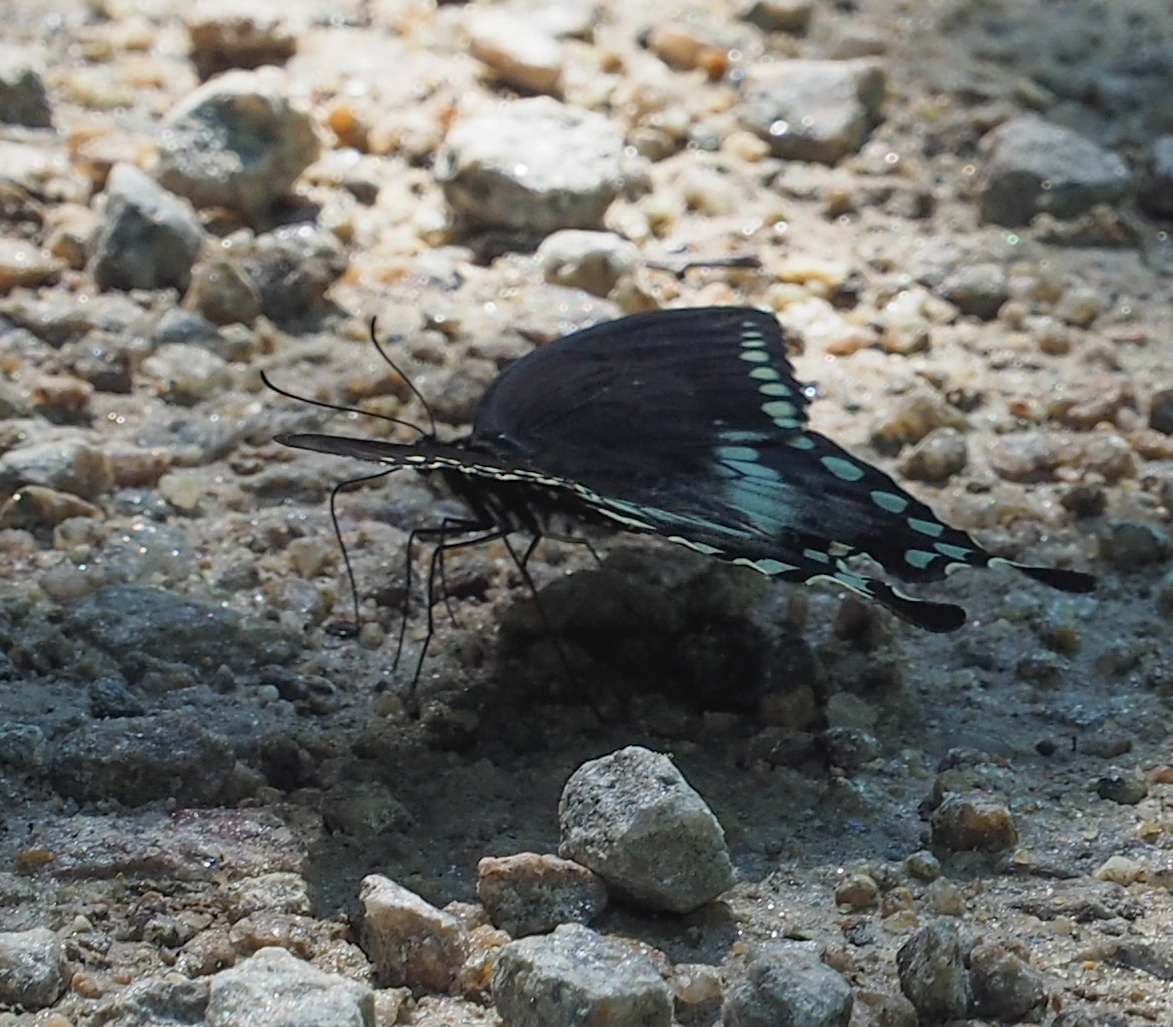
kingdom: Animalia
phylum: Arthropoda
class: Insecta
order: Lepidoptera
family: Papilionidae
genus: Papilio
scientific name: Papilio troilus
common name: Spicebush swallowtail
